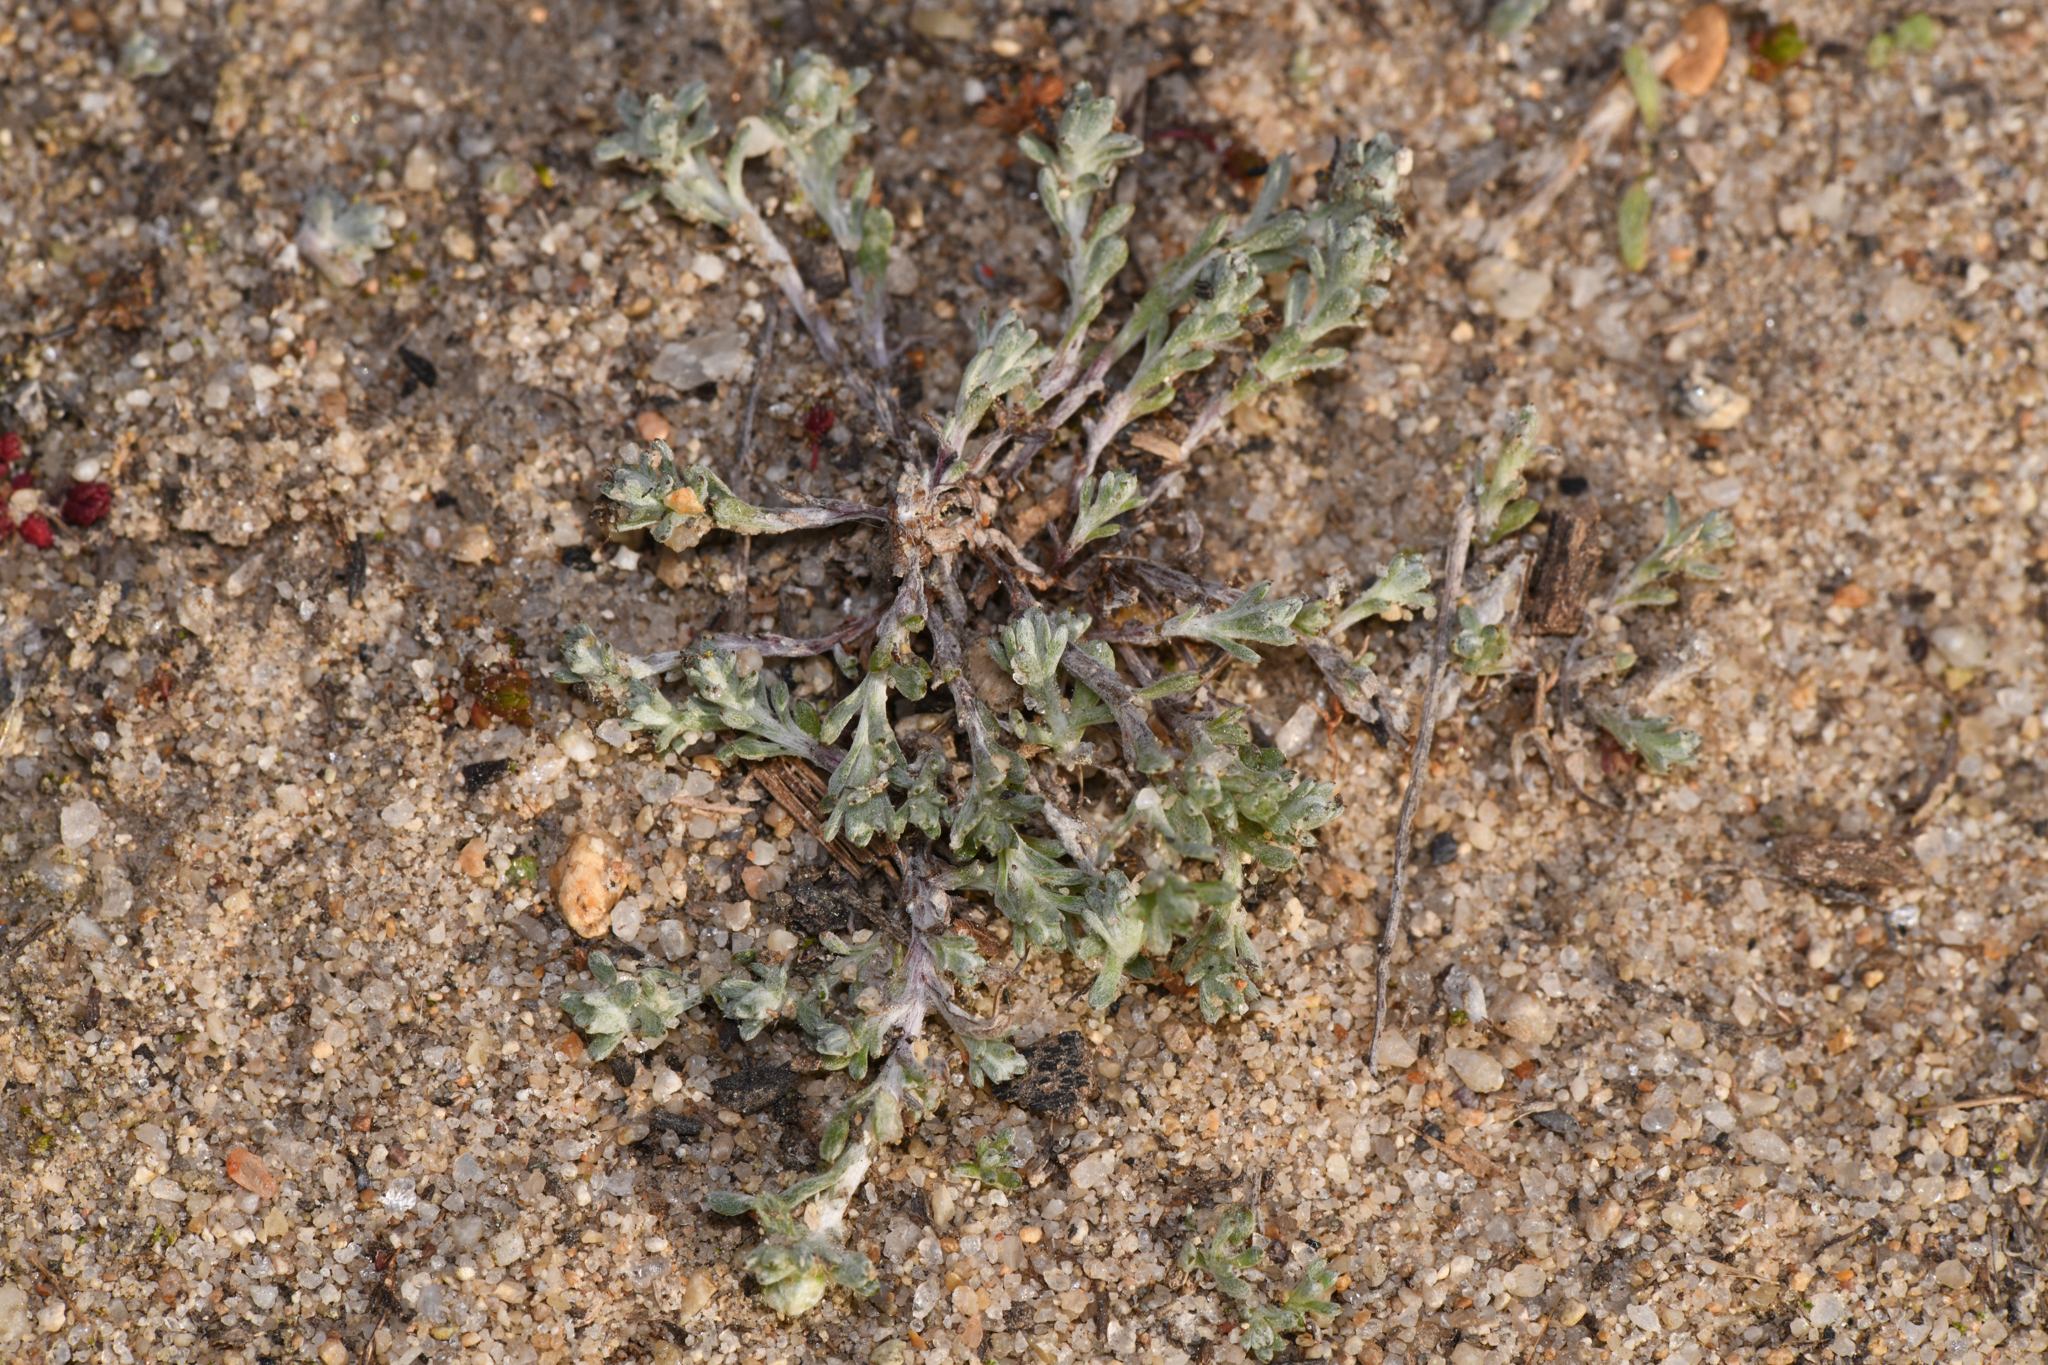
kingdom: Plantae
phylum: Tracheophyta
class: Magnoliopsida
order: Asterales
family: Asteraceae
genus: Stylocline
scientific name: Stylocline gnaphaloides
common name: Everlasting nest-straw
